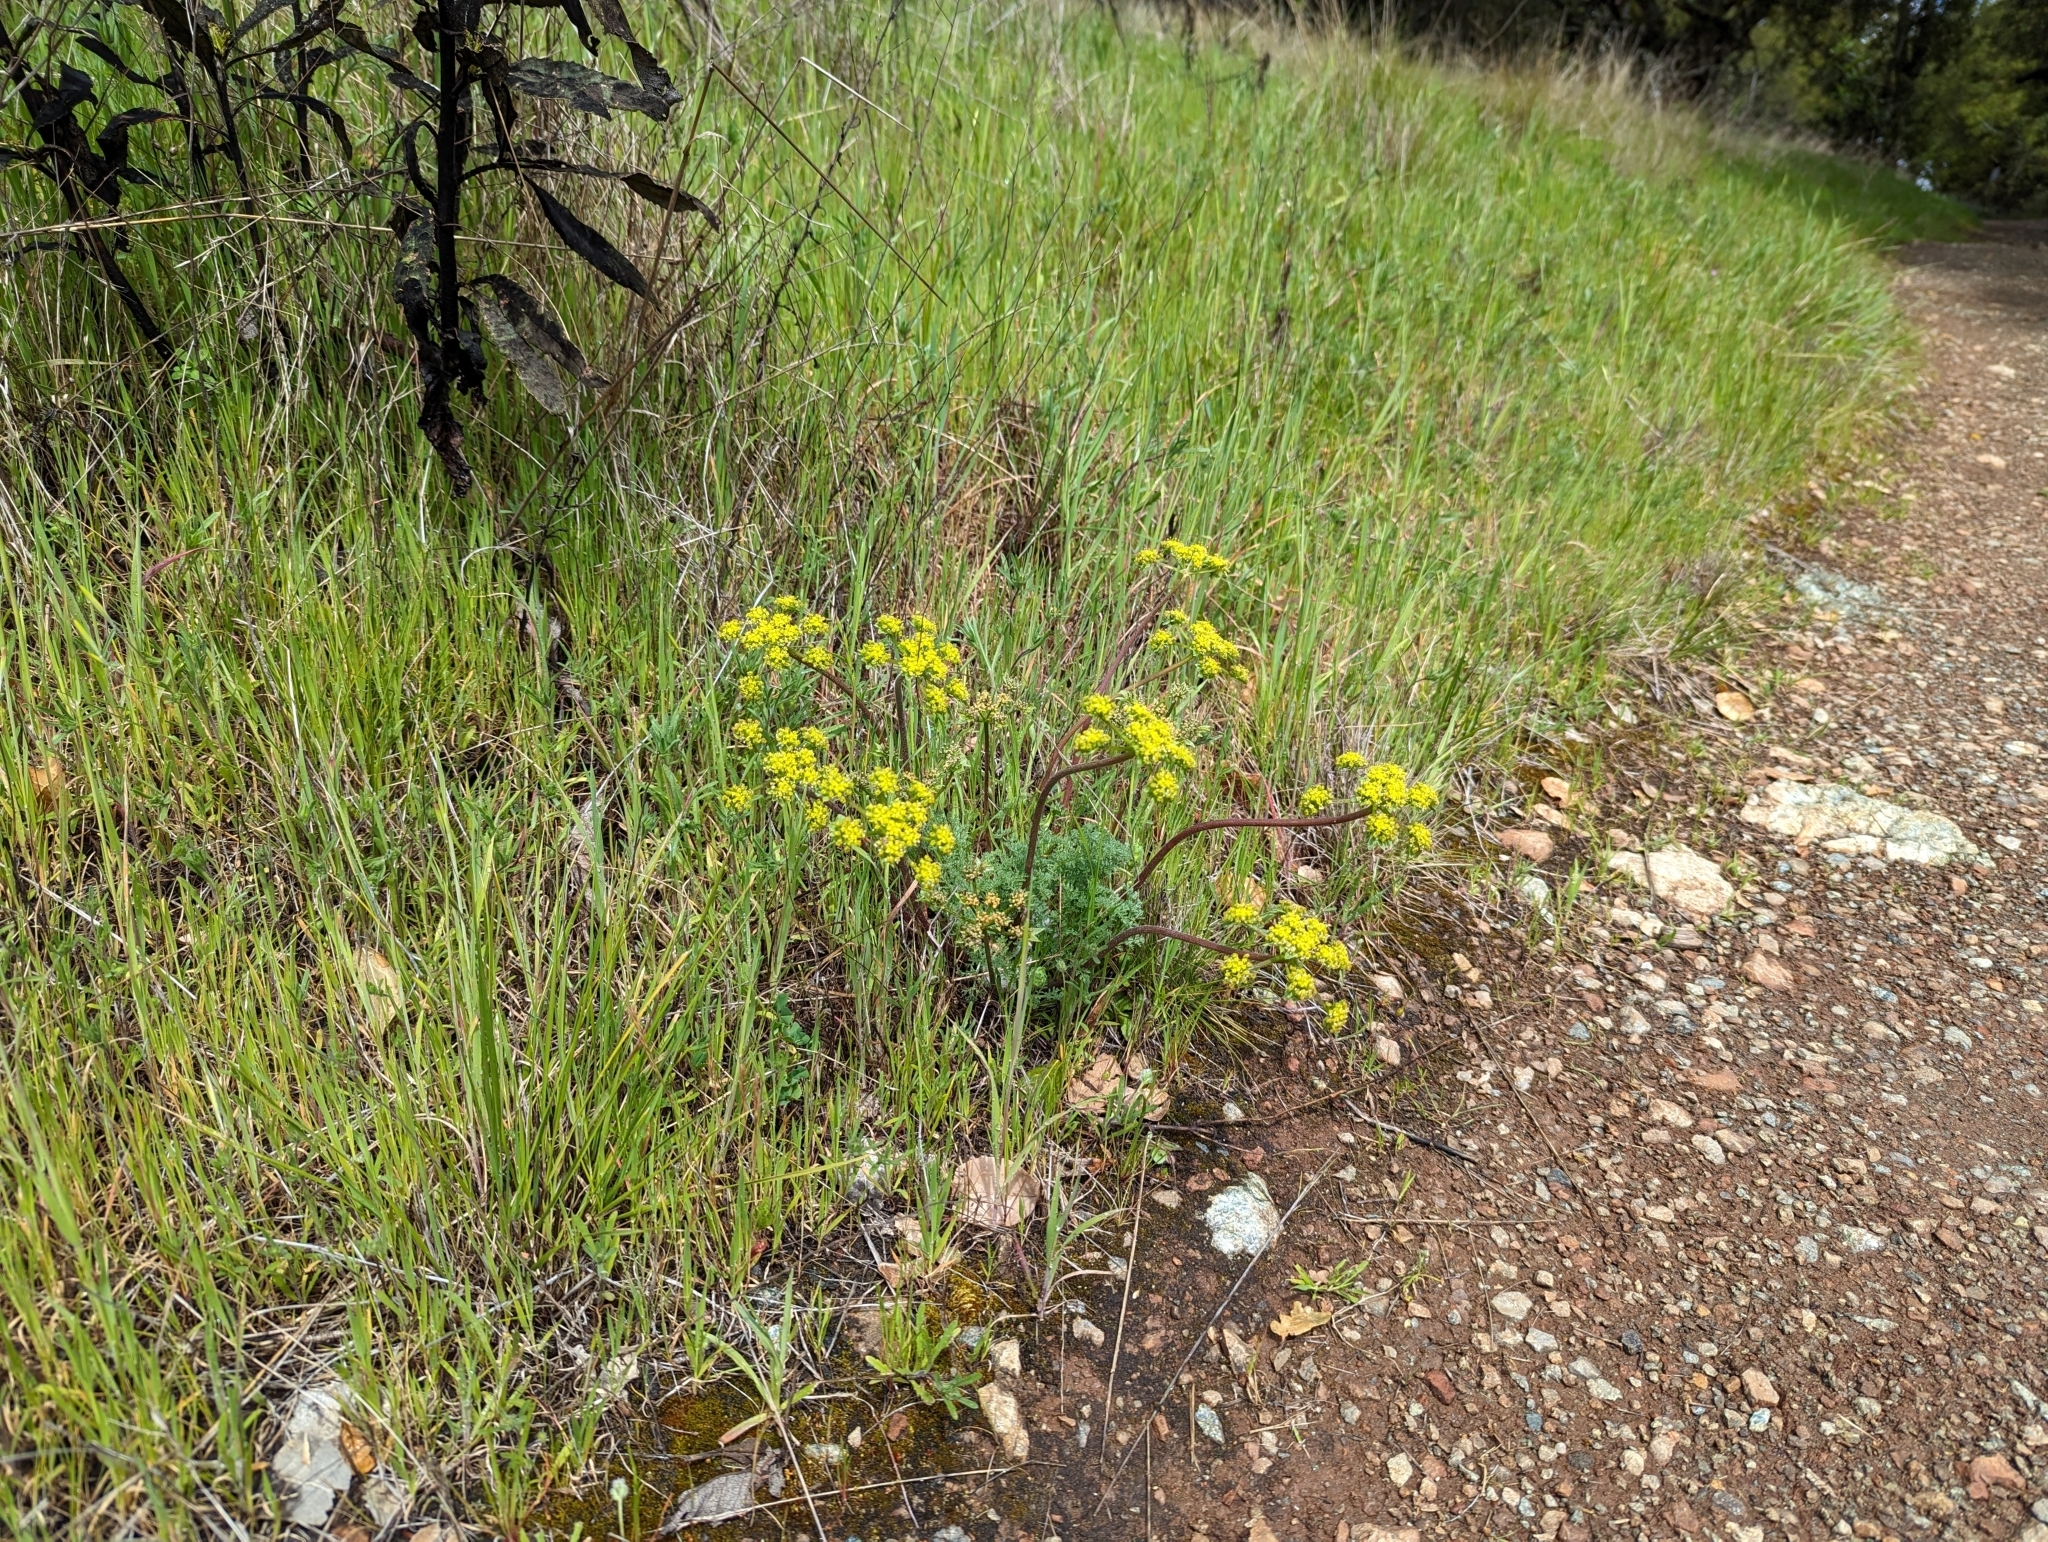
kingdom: Plantae
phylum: Tracheophyta
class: Magnoliopsida
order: Apiales
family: Apiaceae
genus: Lomatium
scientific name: Lomatium dasycarpum
